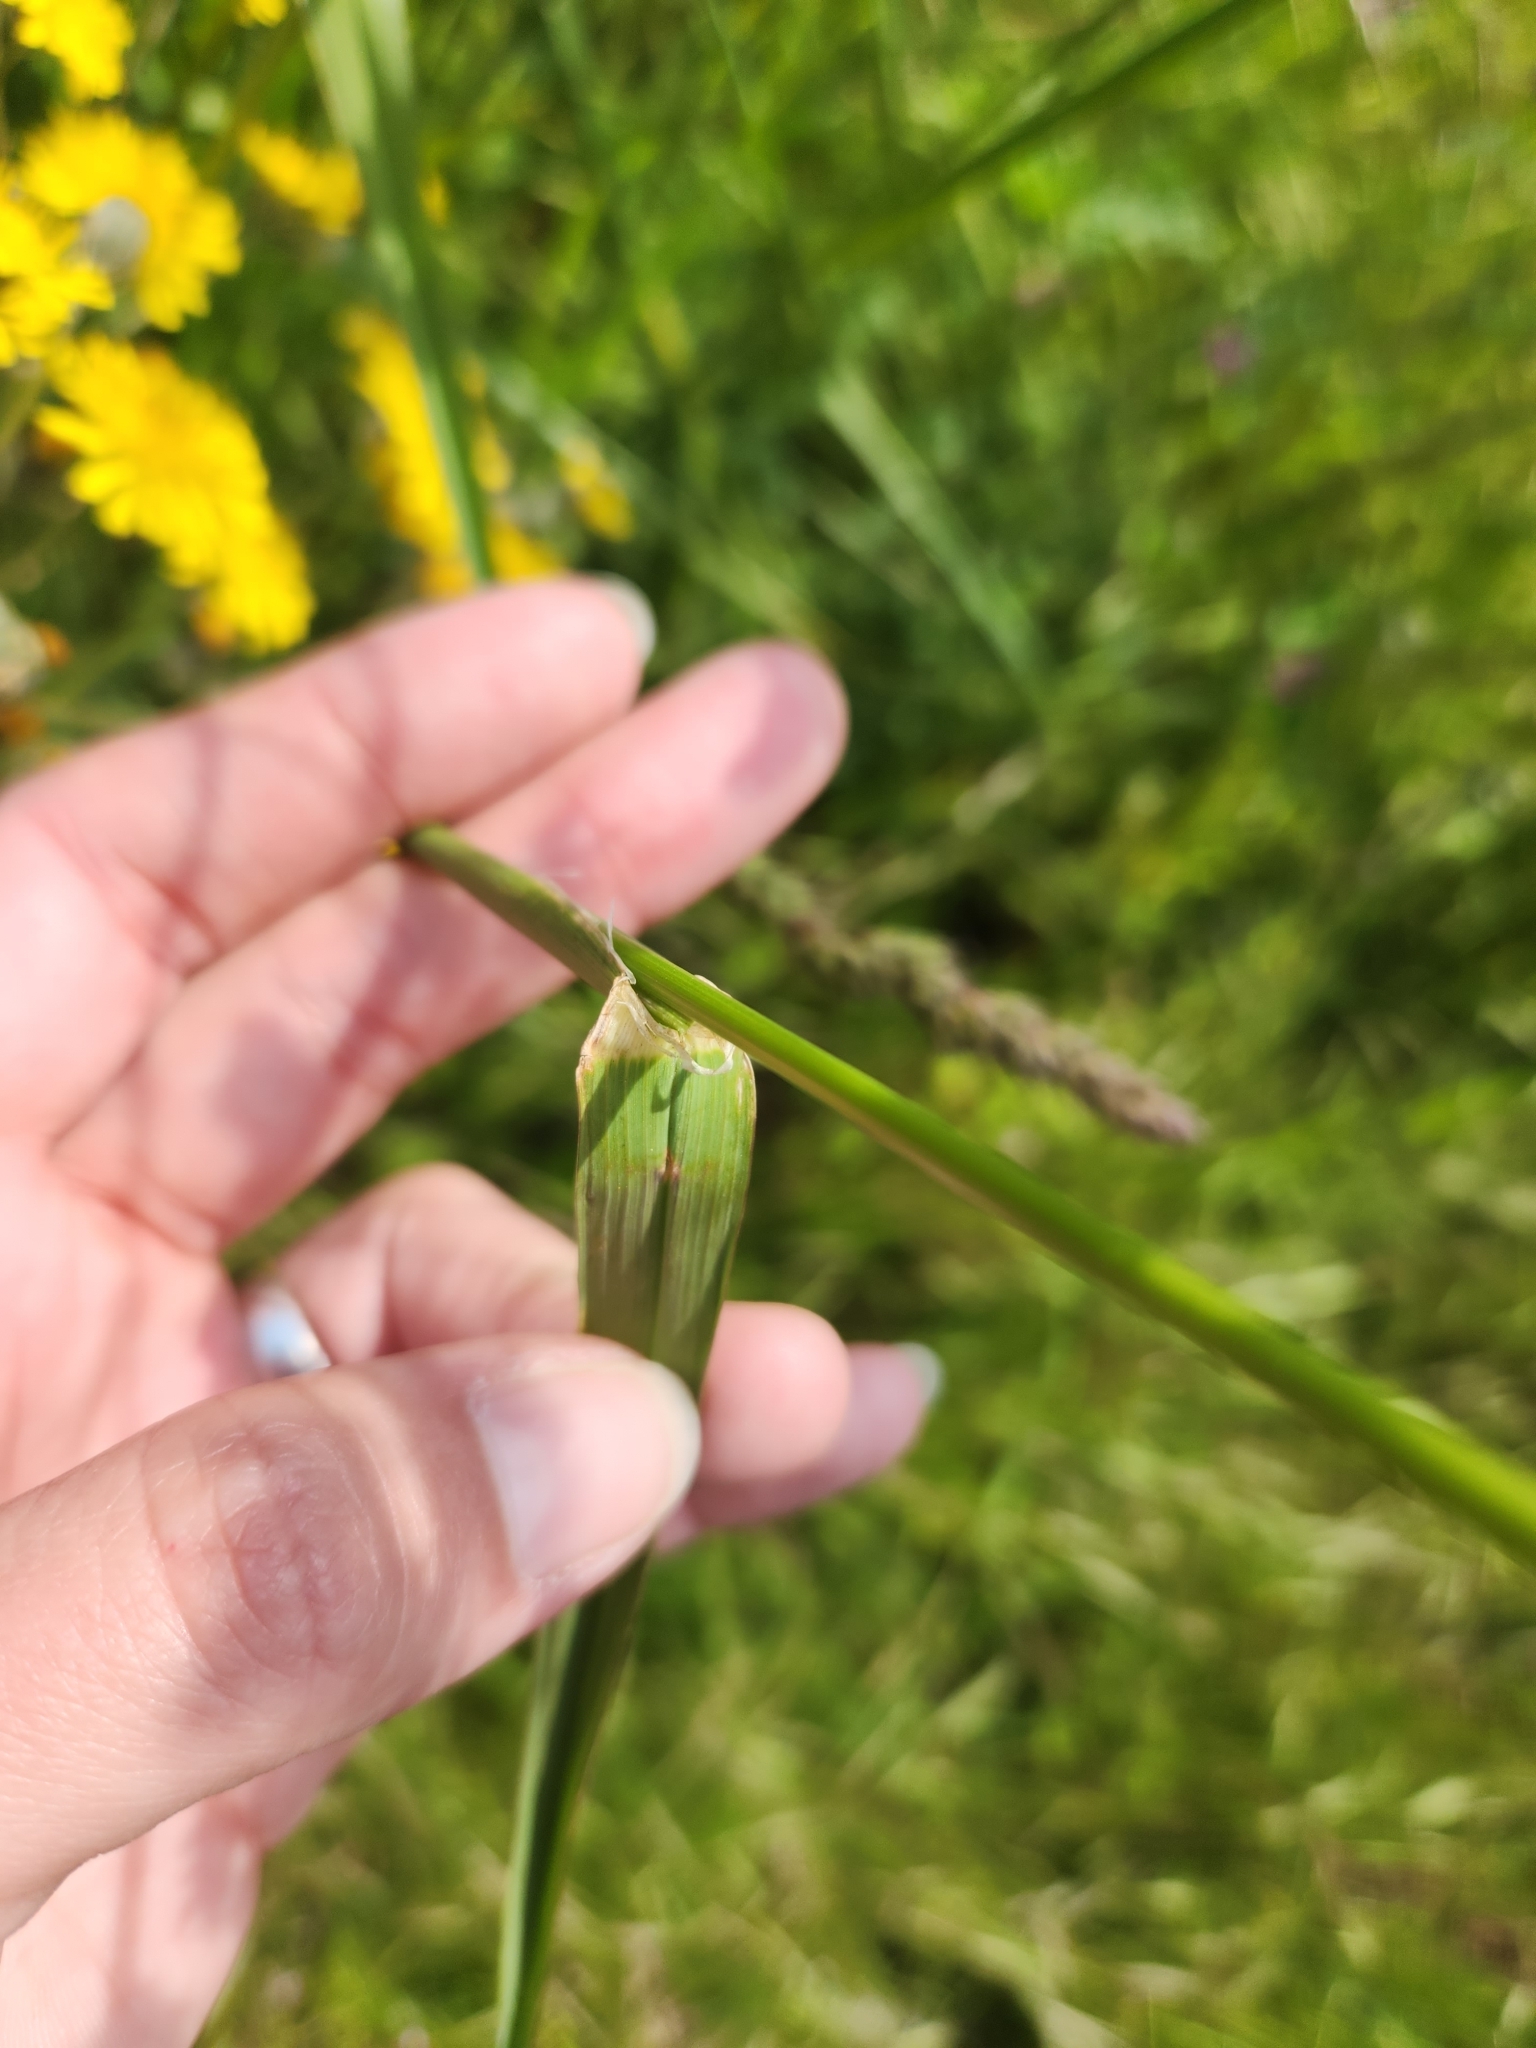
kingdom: Plantae
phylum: Tracheophyta
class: Liliopsida
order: Poales
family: Poaceae
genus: Dactylis
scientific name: Dactylis glomerata
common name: Orchardgrass
